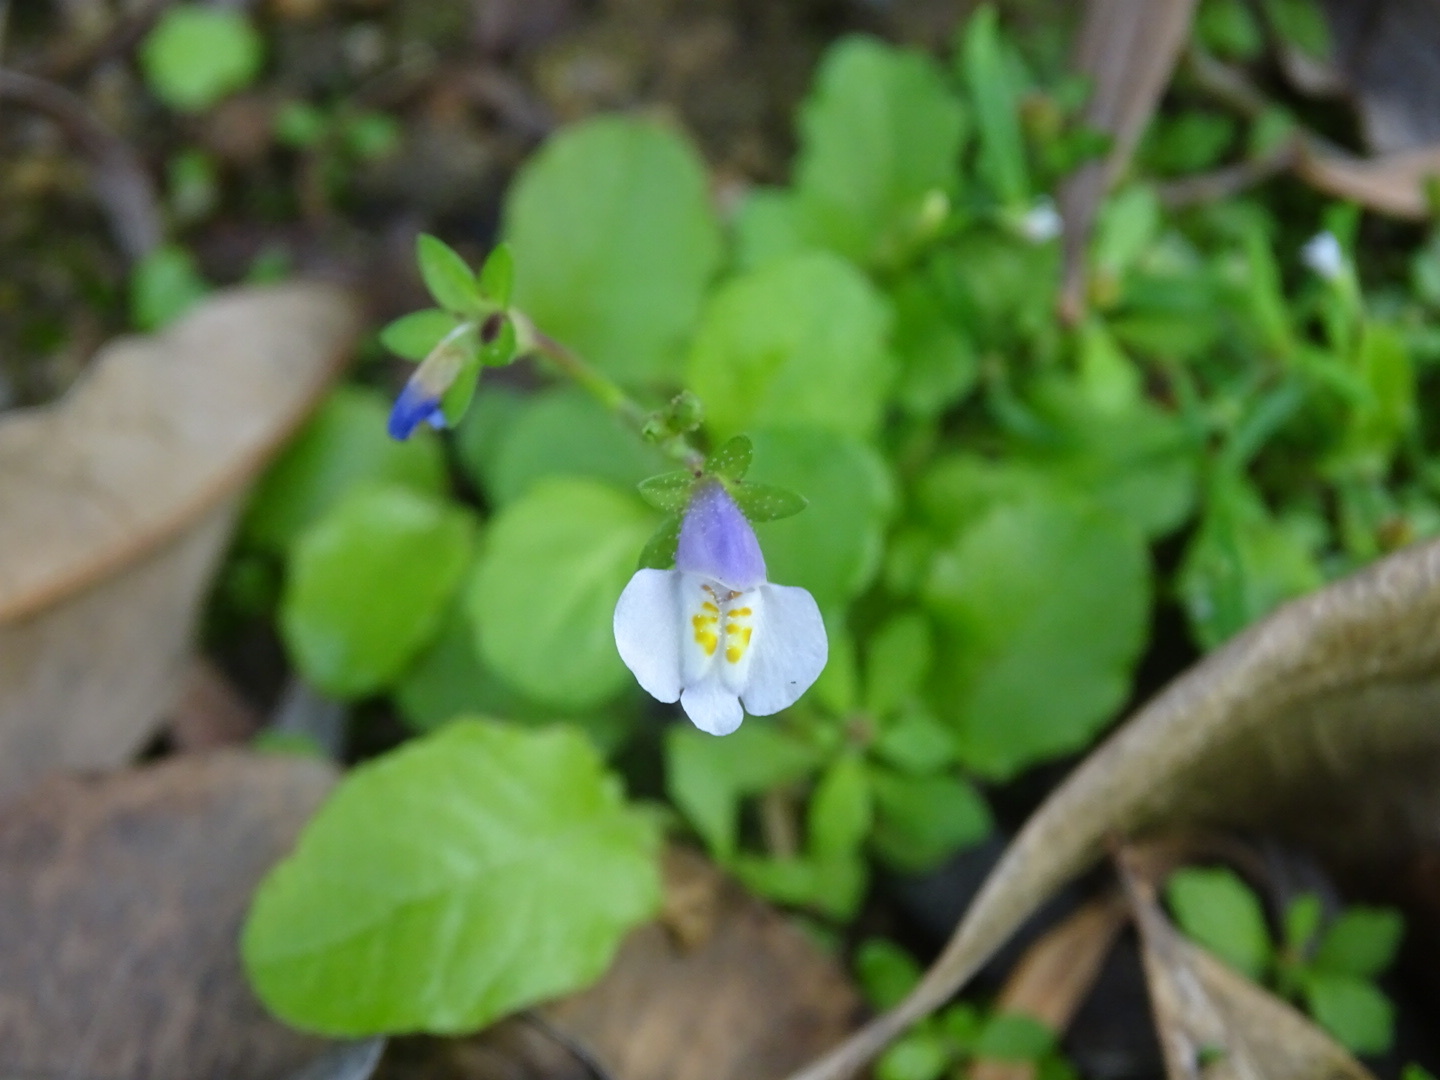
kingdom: Plantae
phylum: Tracheophyta
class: Magnoliopsida
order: Lamiales
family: Mazaceae
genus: Mazus
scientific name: Mazus pumilus
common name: Japanese mazus
